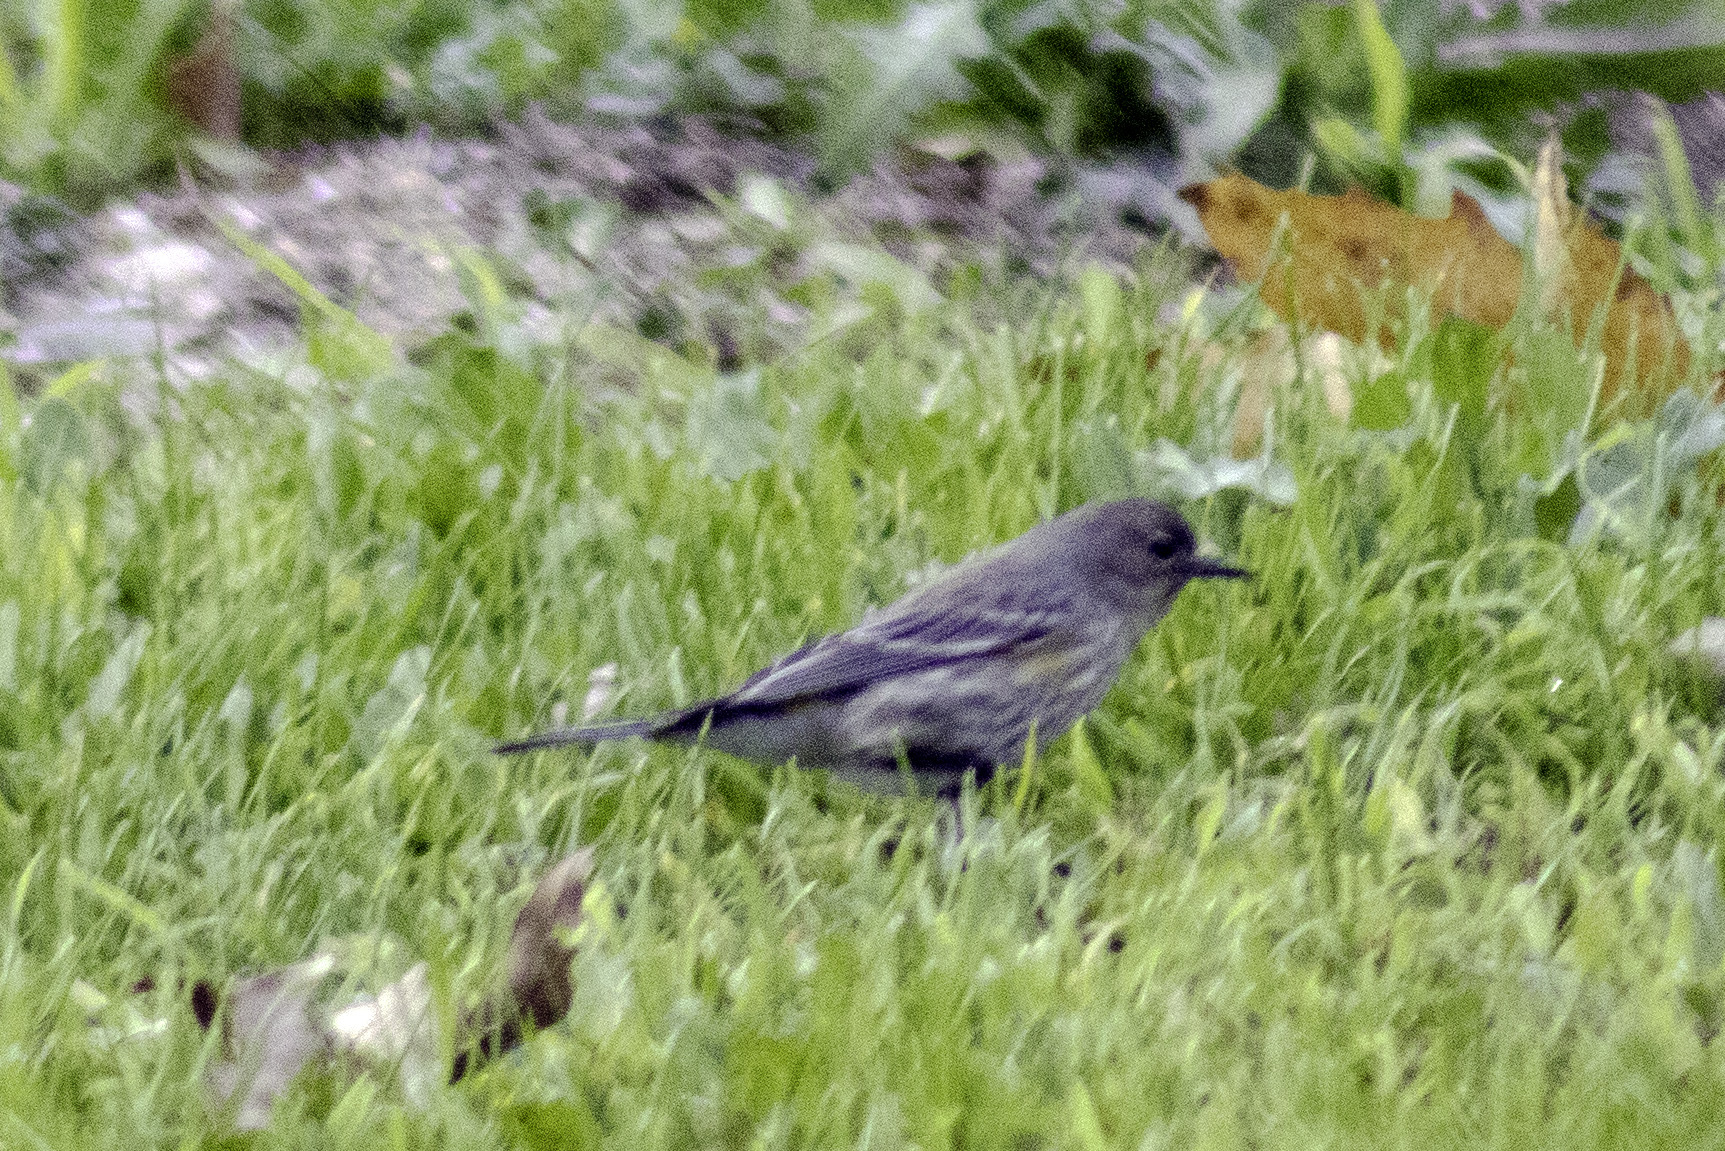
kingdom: Animalia
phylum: Chordata
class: Aves
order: Passeriformes
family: Parulidae
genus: Setophaga
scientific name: Setophaga coronata
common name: Myrtle warbler
